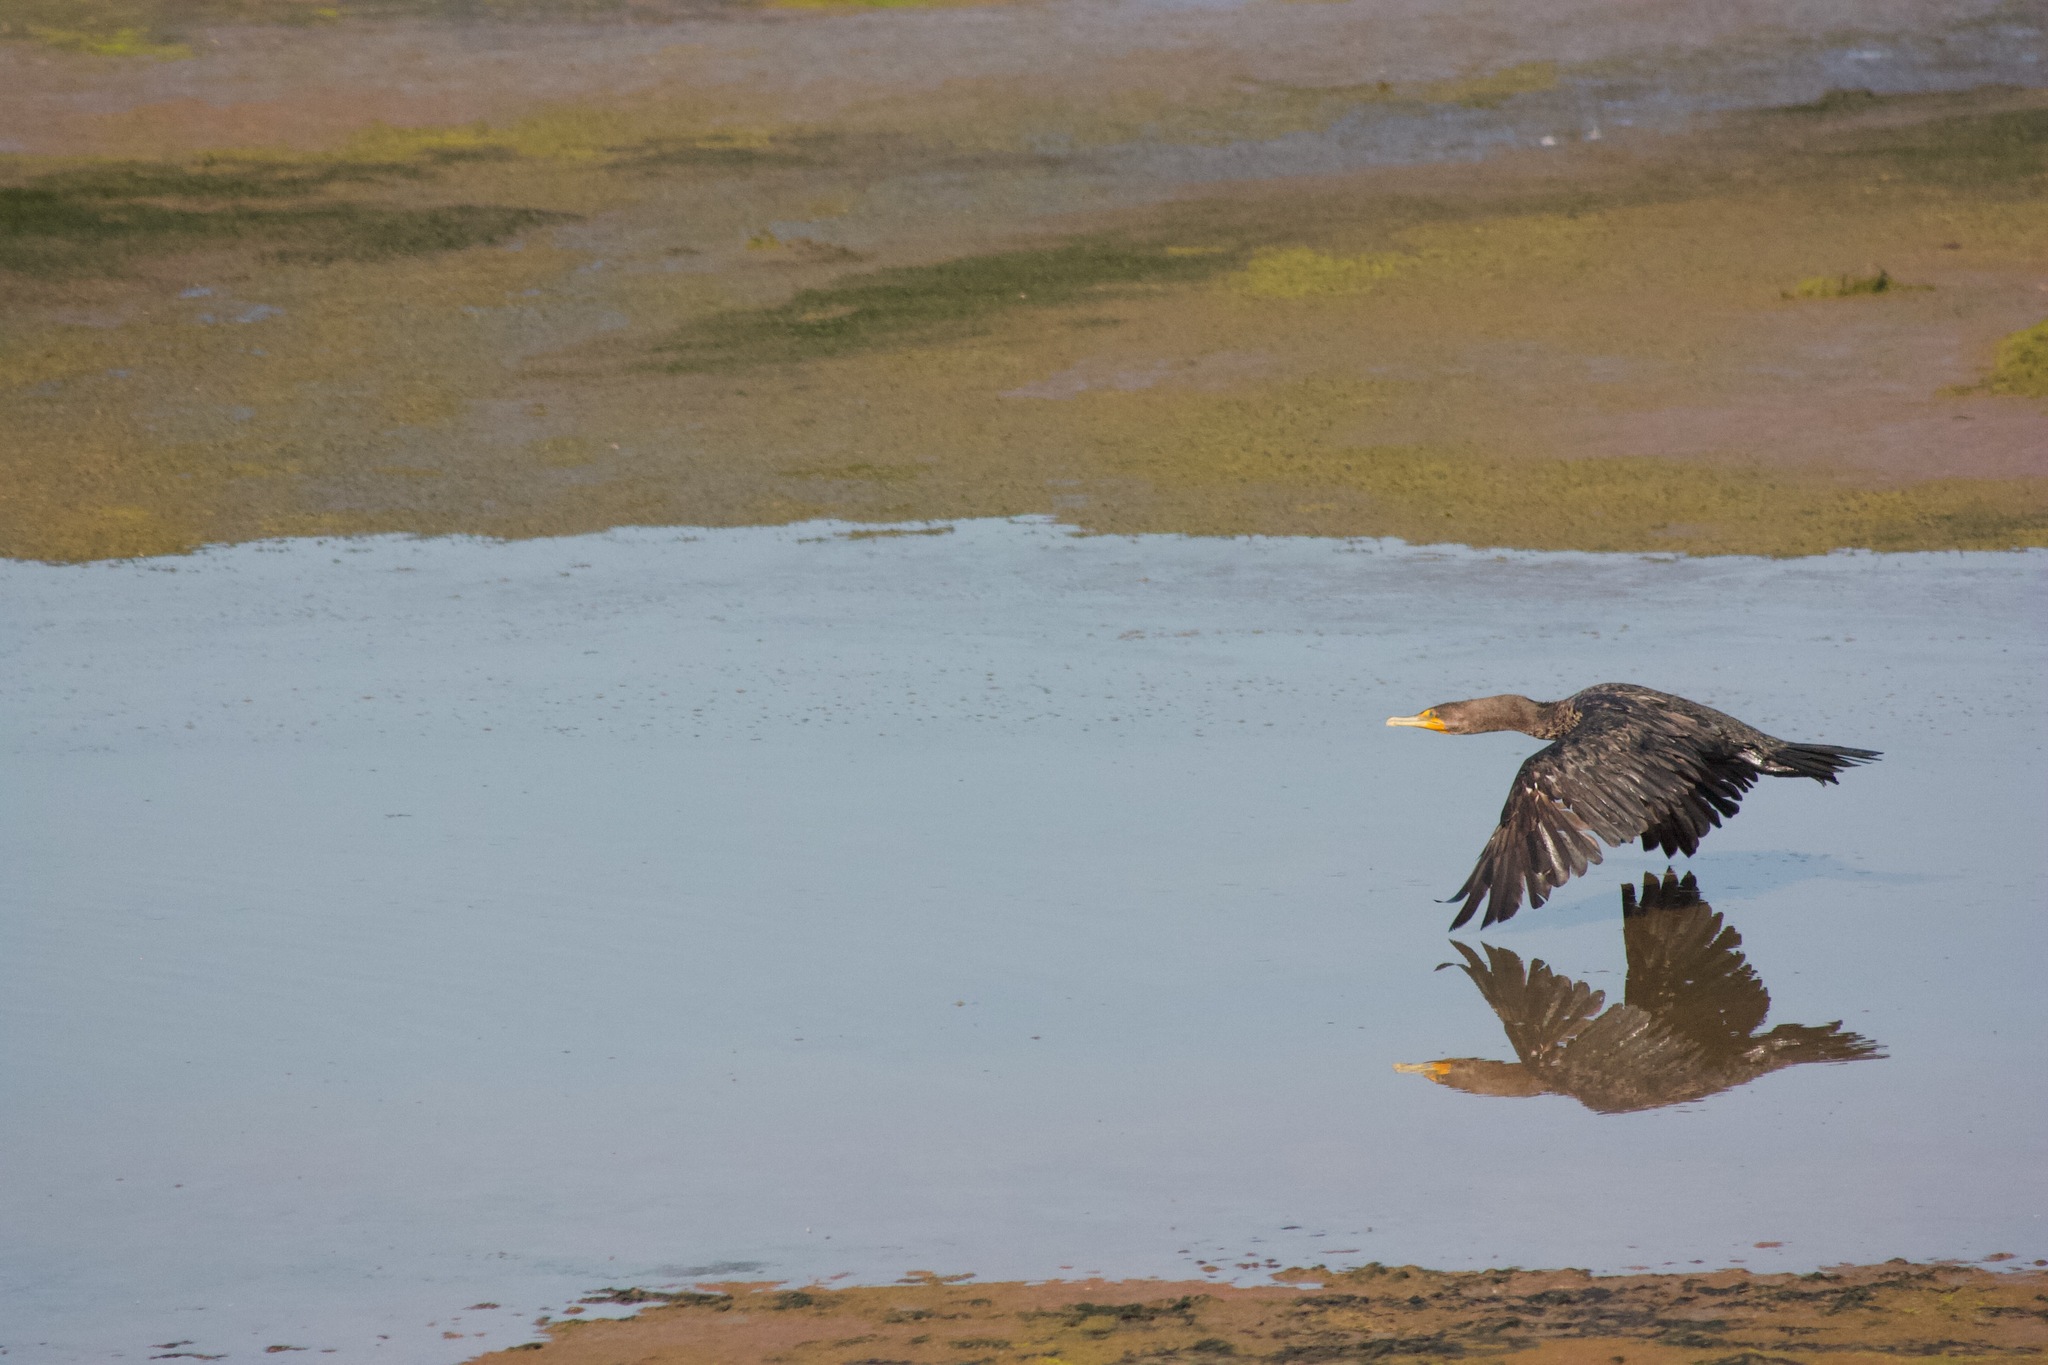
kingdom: Animalia
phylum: Chordata
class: Aves
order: Suliformes
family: Phalacrocoracidae
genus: Phalacrocorax
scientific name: Phalacrocorax auritus
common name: Double-crested cormorant
